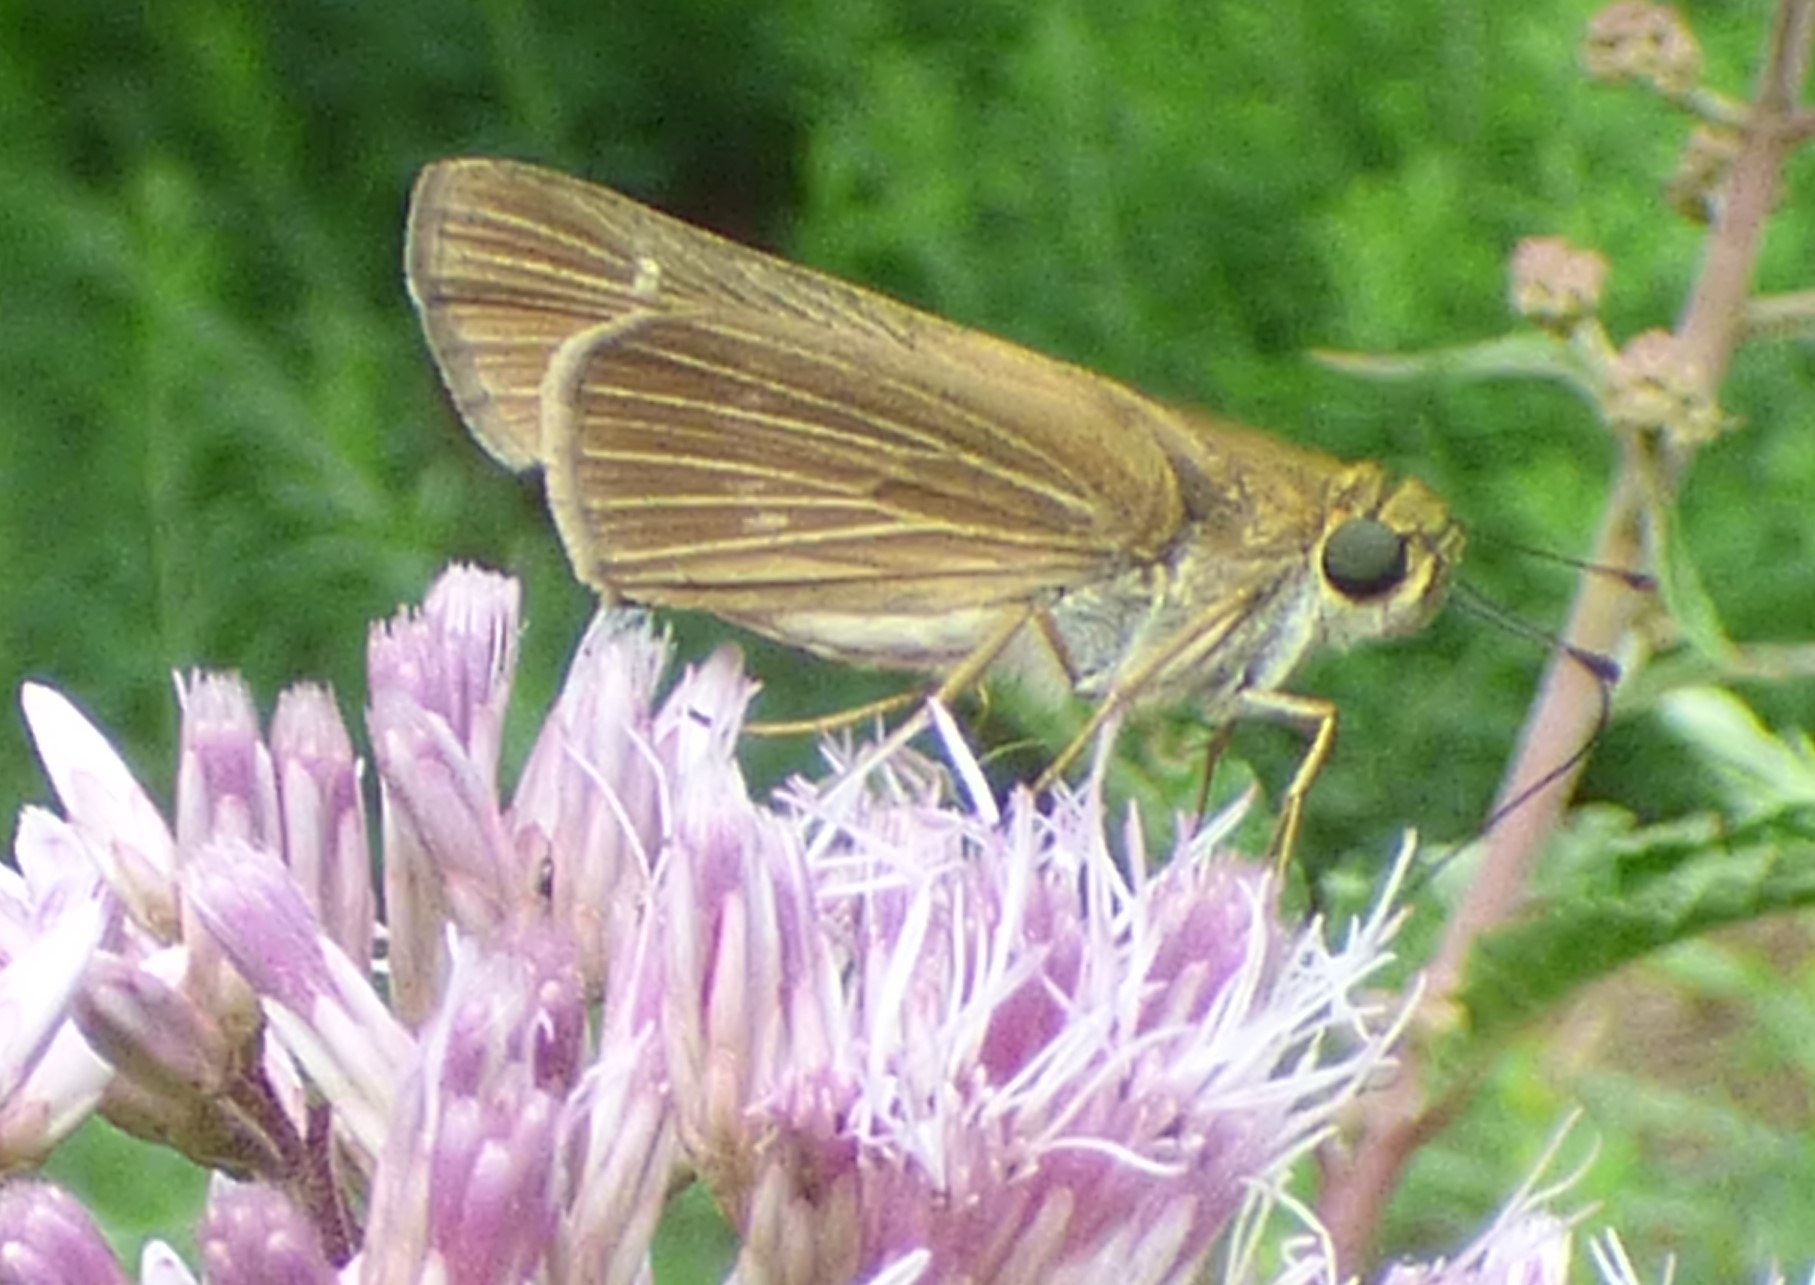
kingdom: Animalia
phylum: Arthropoda
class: Insecta
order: Lepidoptera
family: Hesperiidae
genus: Panoquina
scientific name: Panoquina ocola
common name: Ocola skipper
